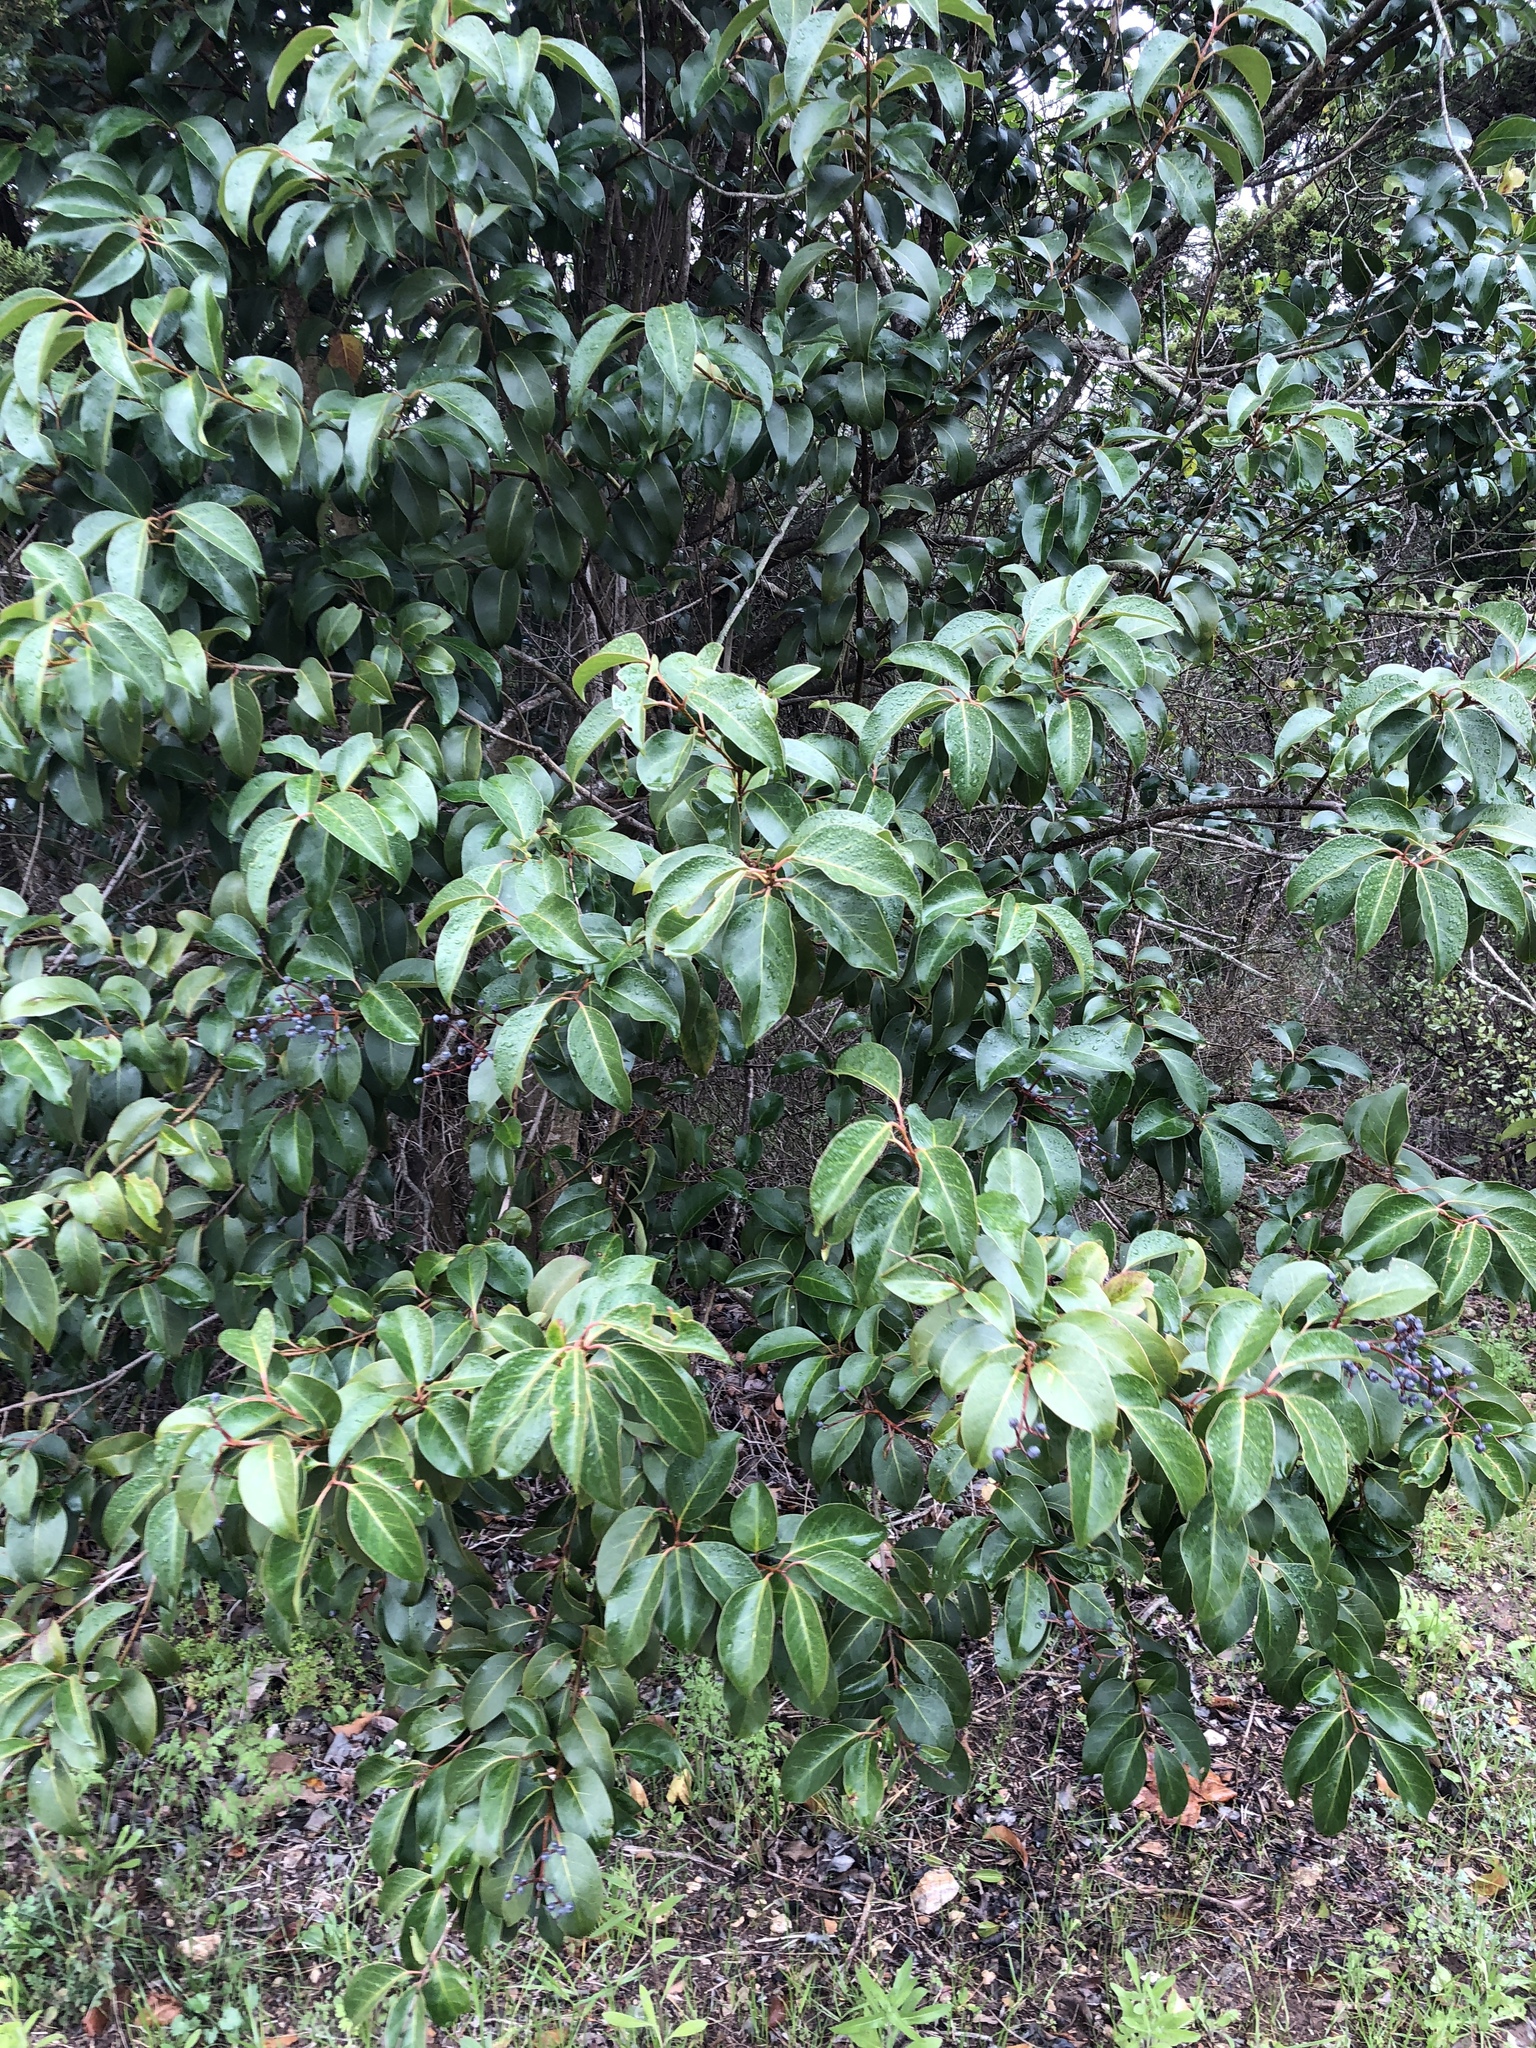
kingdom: Plantae
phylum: Tracheophyta
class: Magnoliopsida
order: Lamiales
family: Oleaceae
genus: Ligustrum
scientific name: Ligustrum lucidum
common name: Glossy privet
